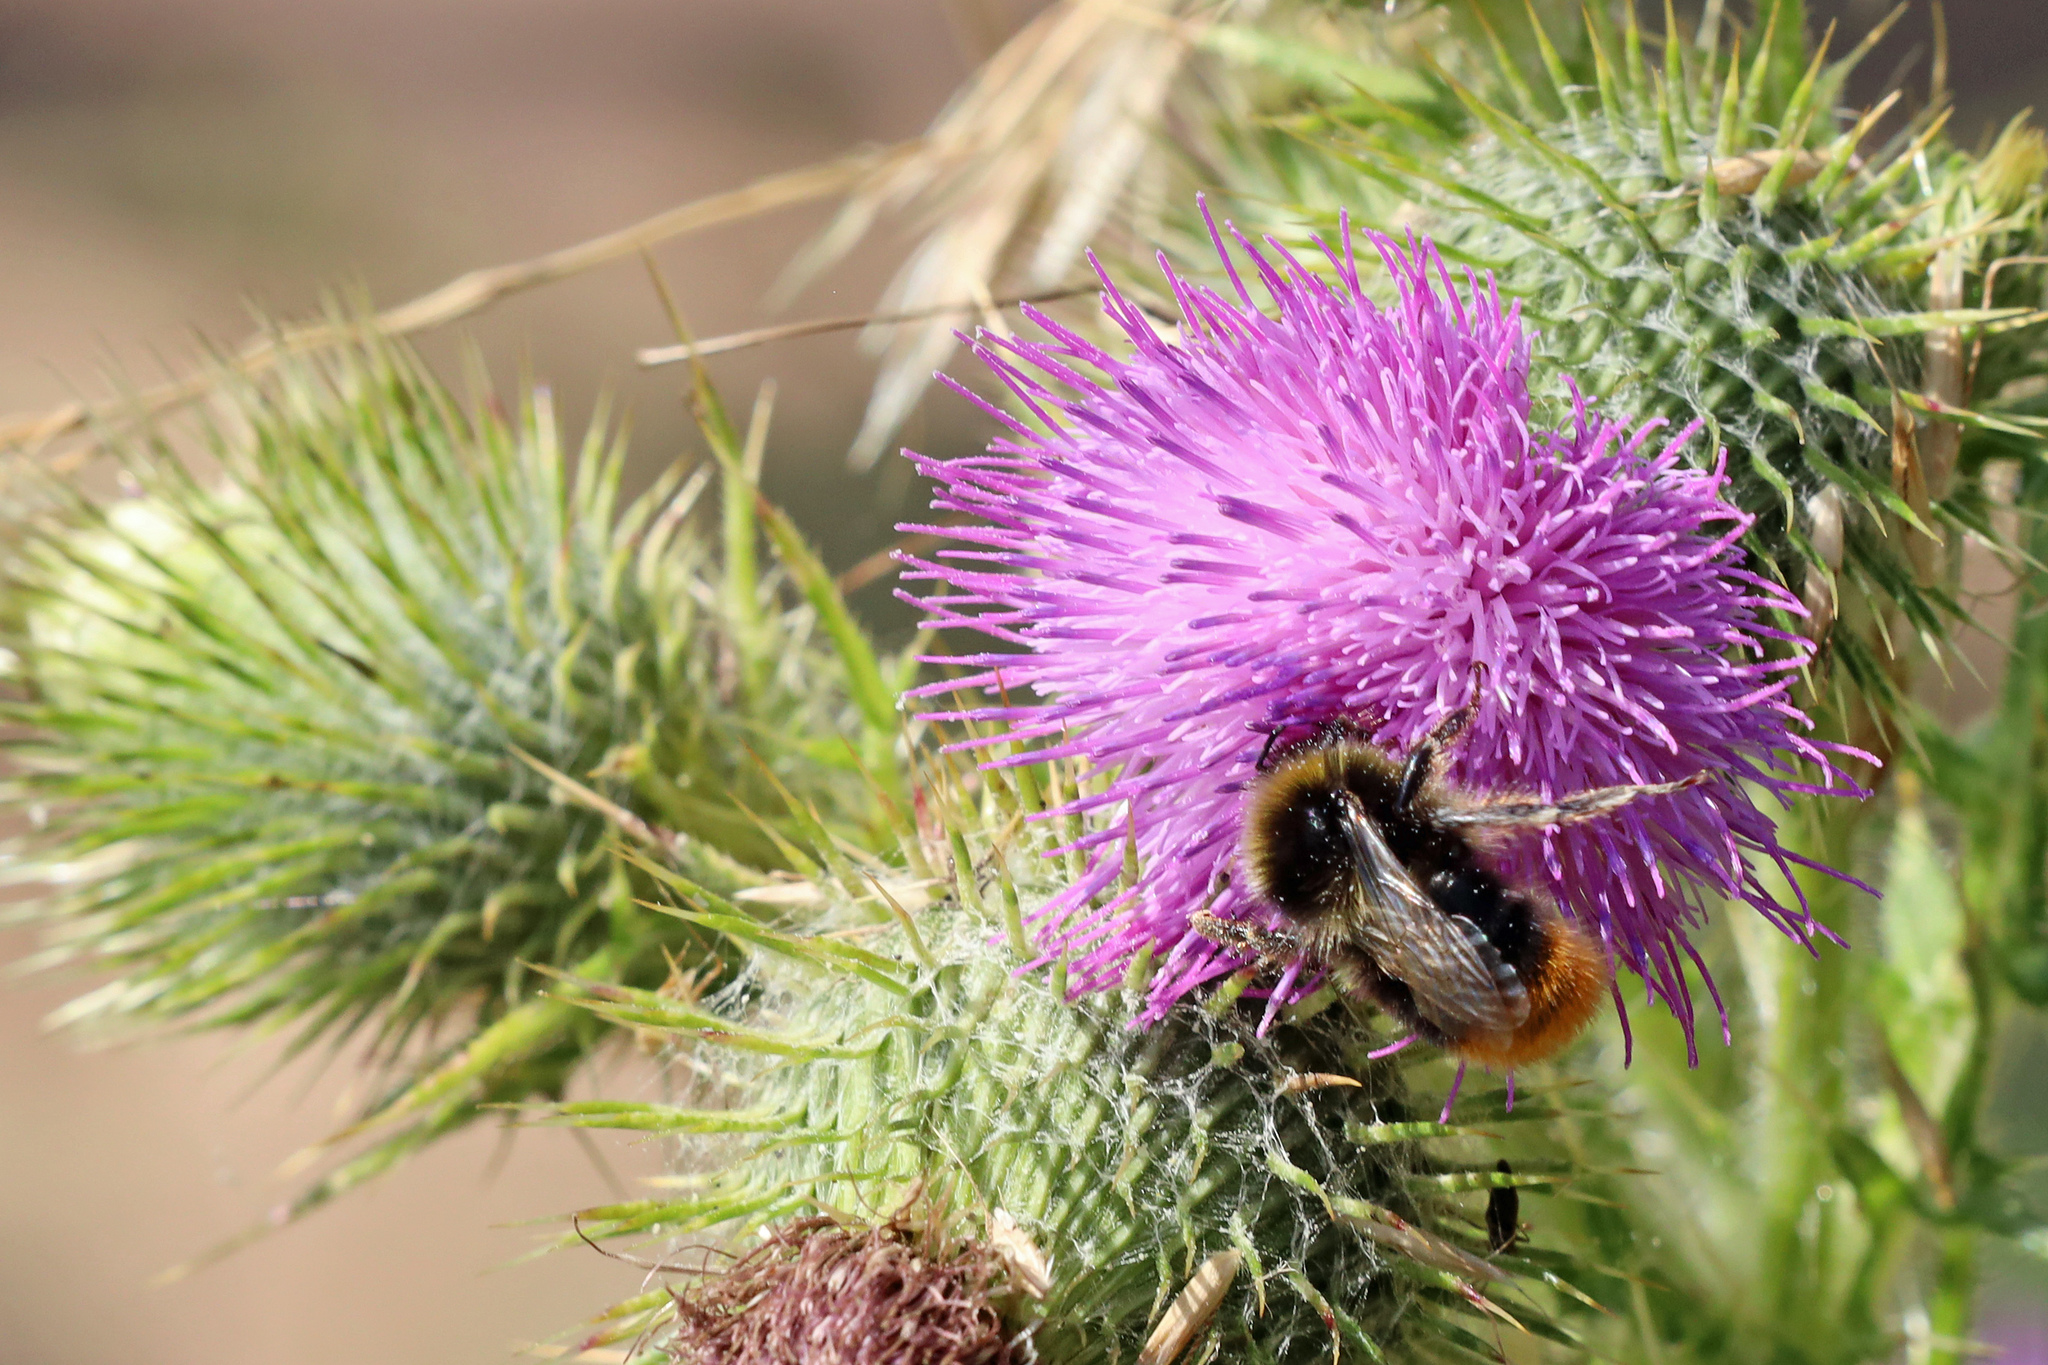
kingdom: Animalia
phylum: Arthropoda
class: Insecta
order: Hymenoptera
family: Apidae
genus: Bombus
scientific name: Bombus lapidarius
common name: Large red-tailed humble-bee
